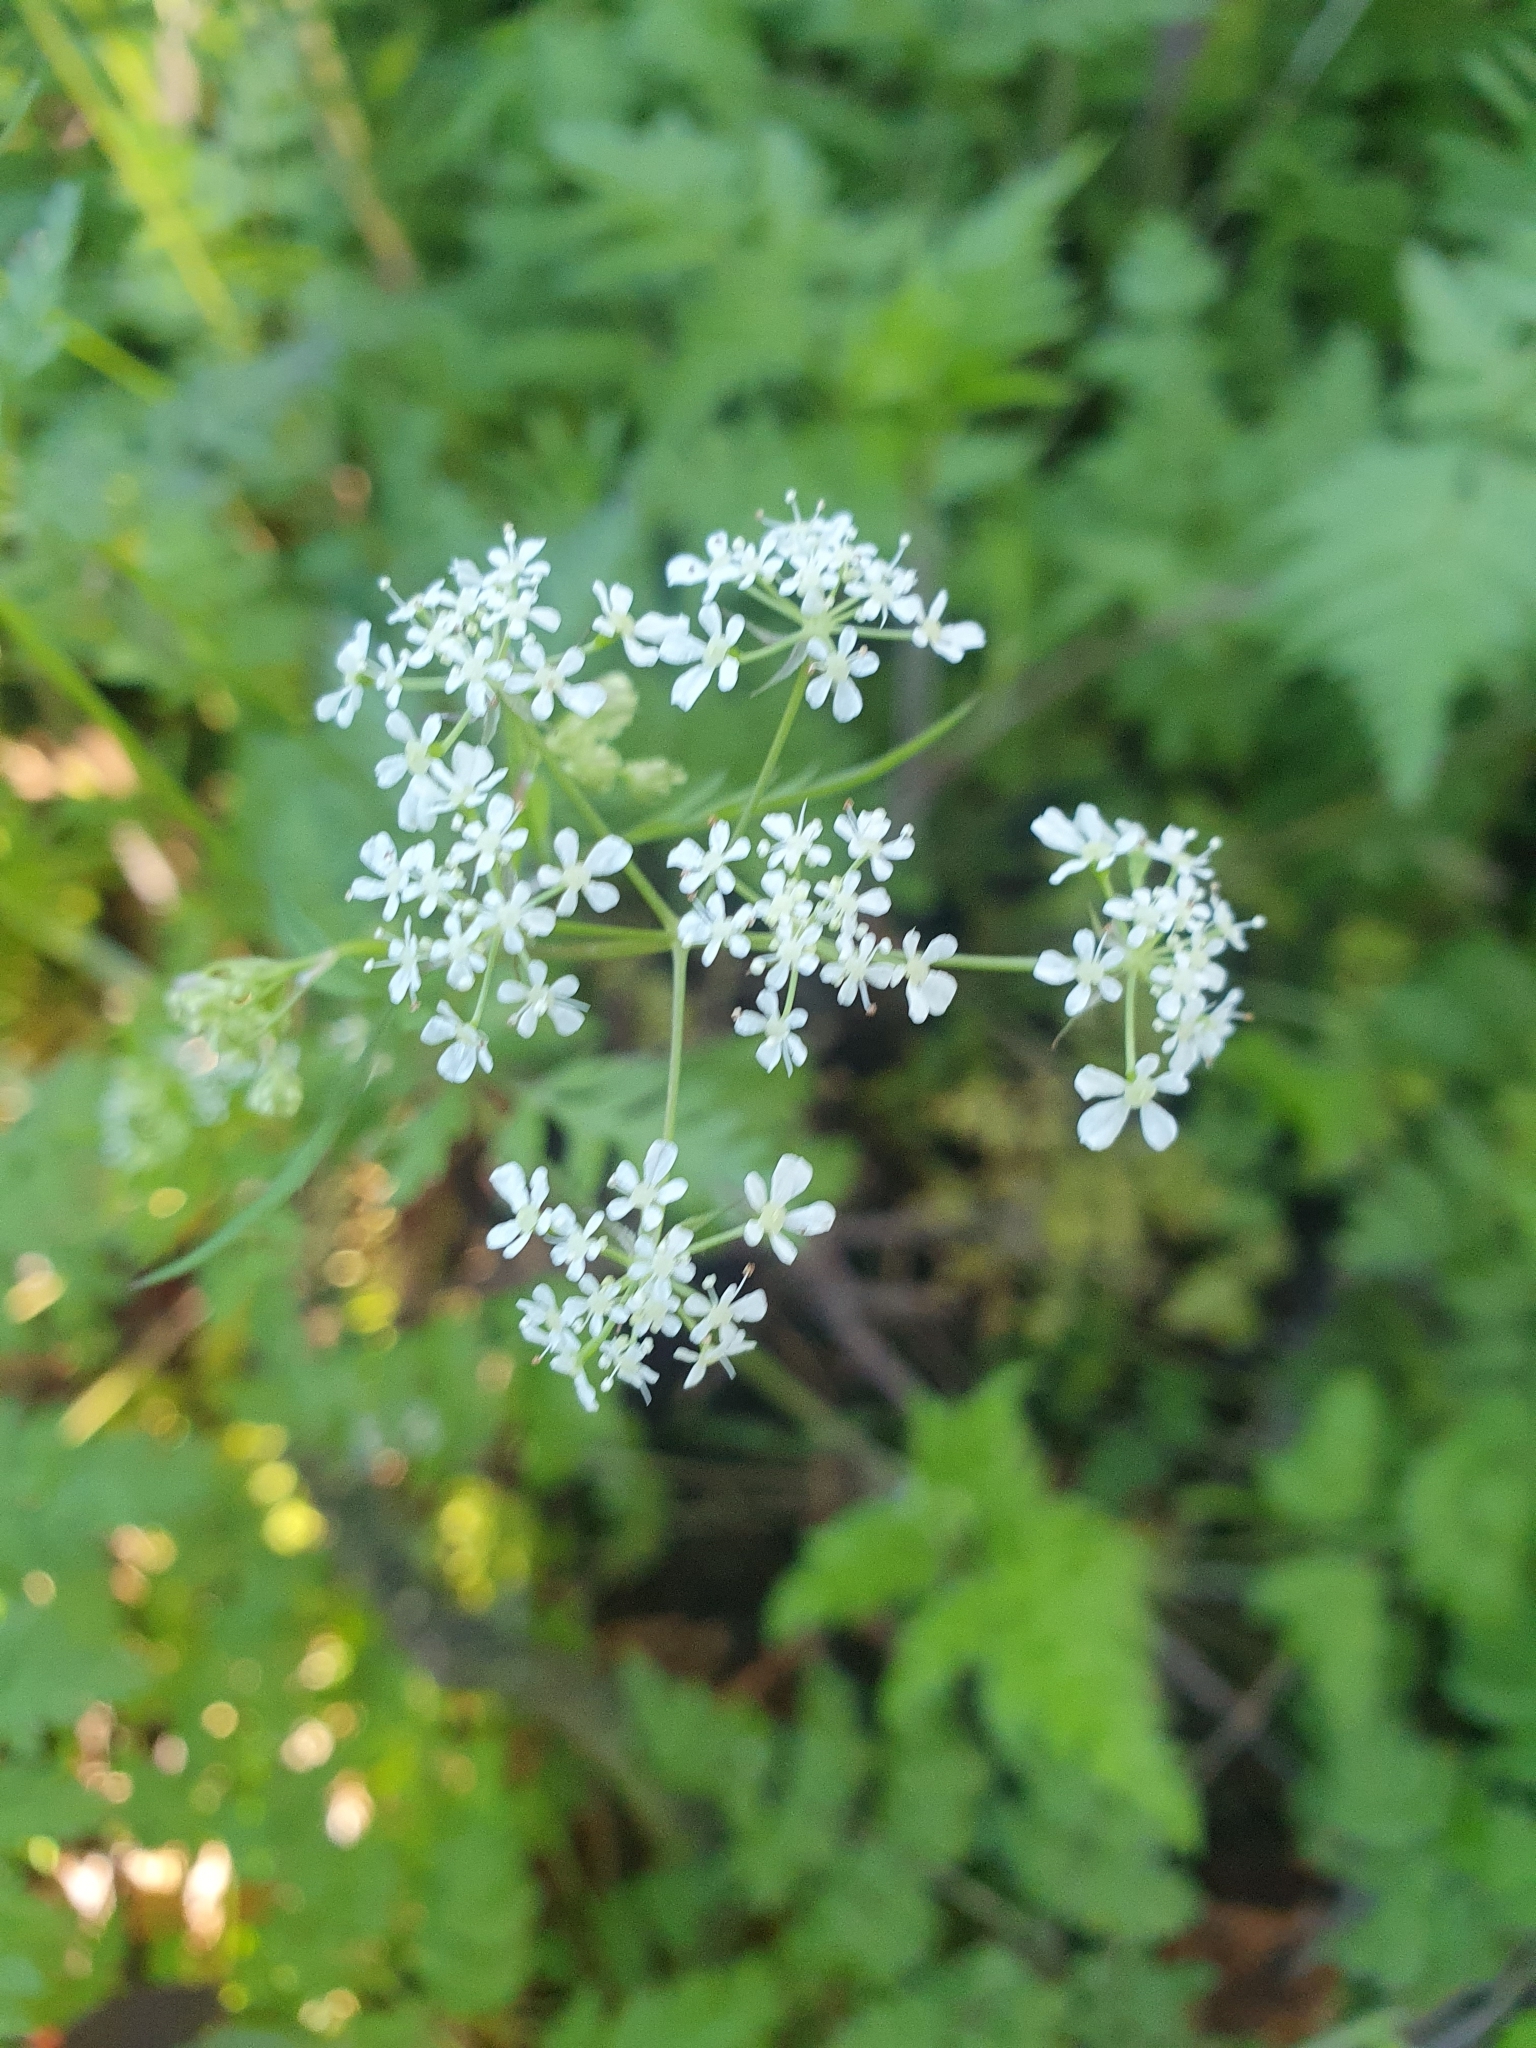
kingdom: Plantae
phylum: Tracheophyta
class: Magnoliopsida
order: Apiales
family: Apiaceae
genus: Anthriscus
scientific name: Anthriscus sylvestris
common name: Cow parsley
